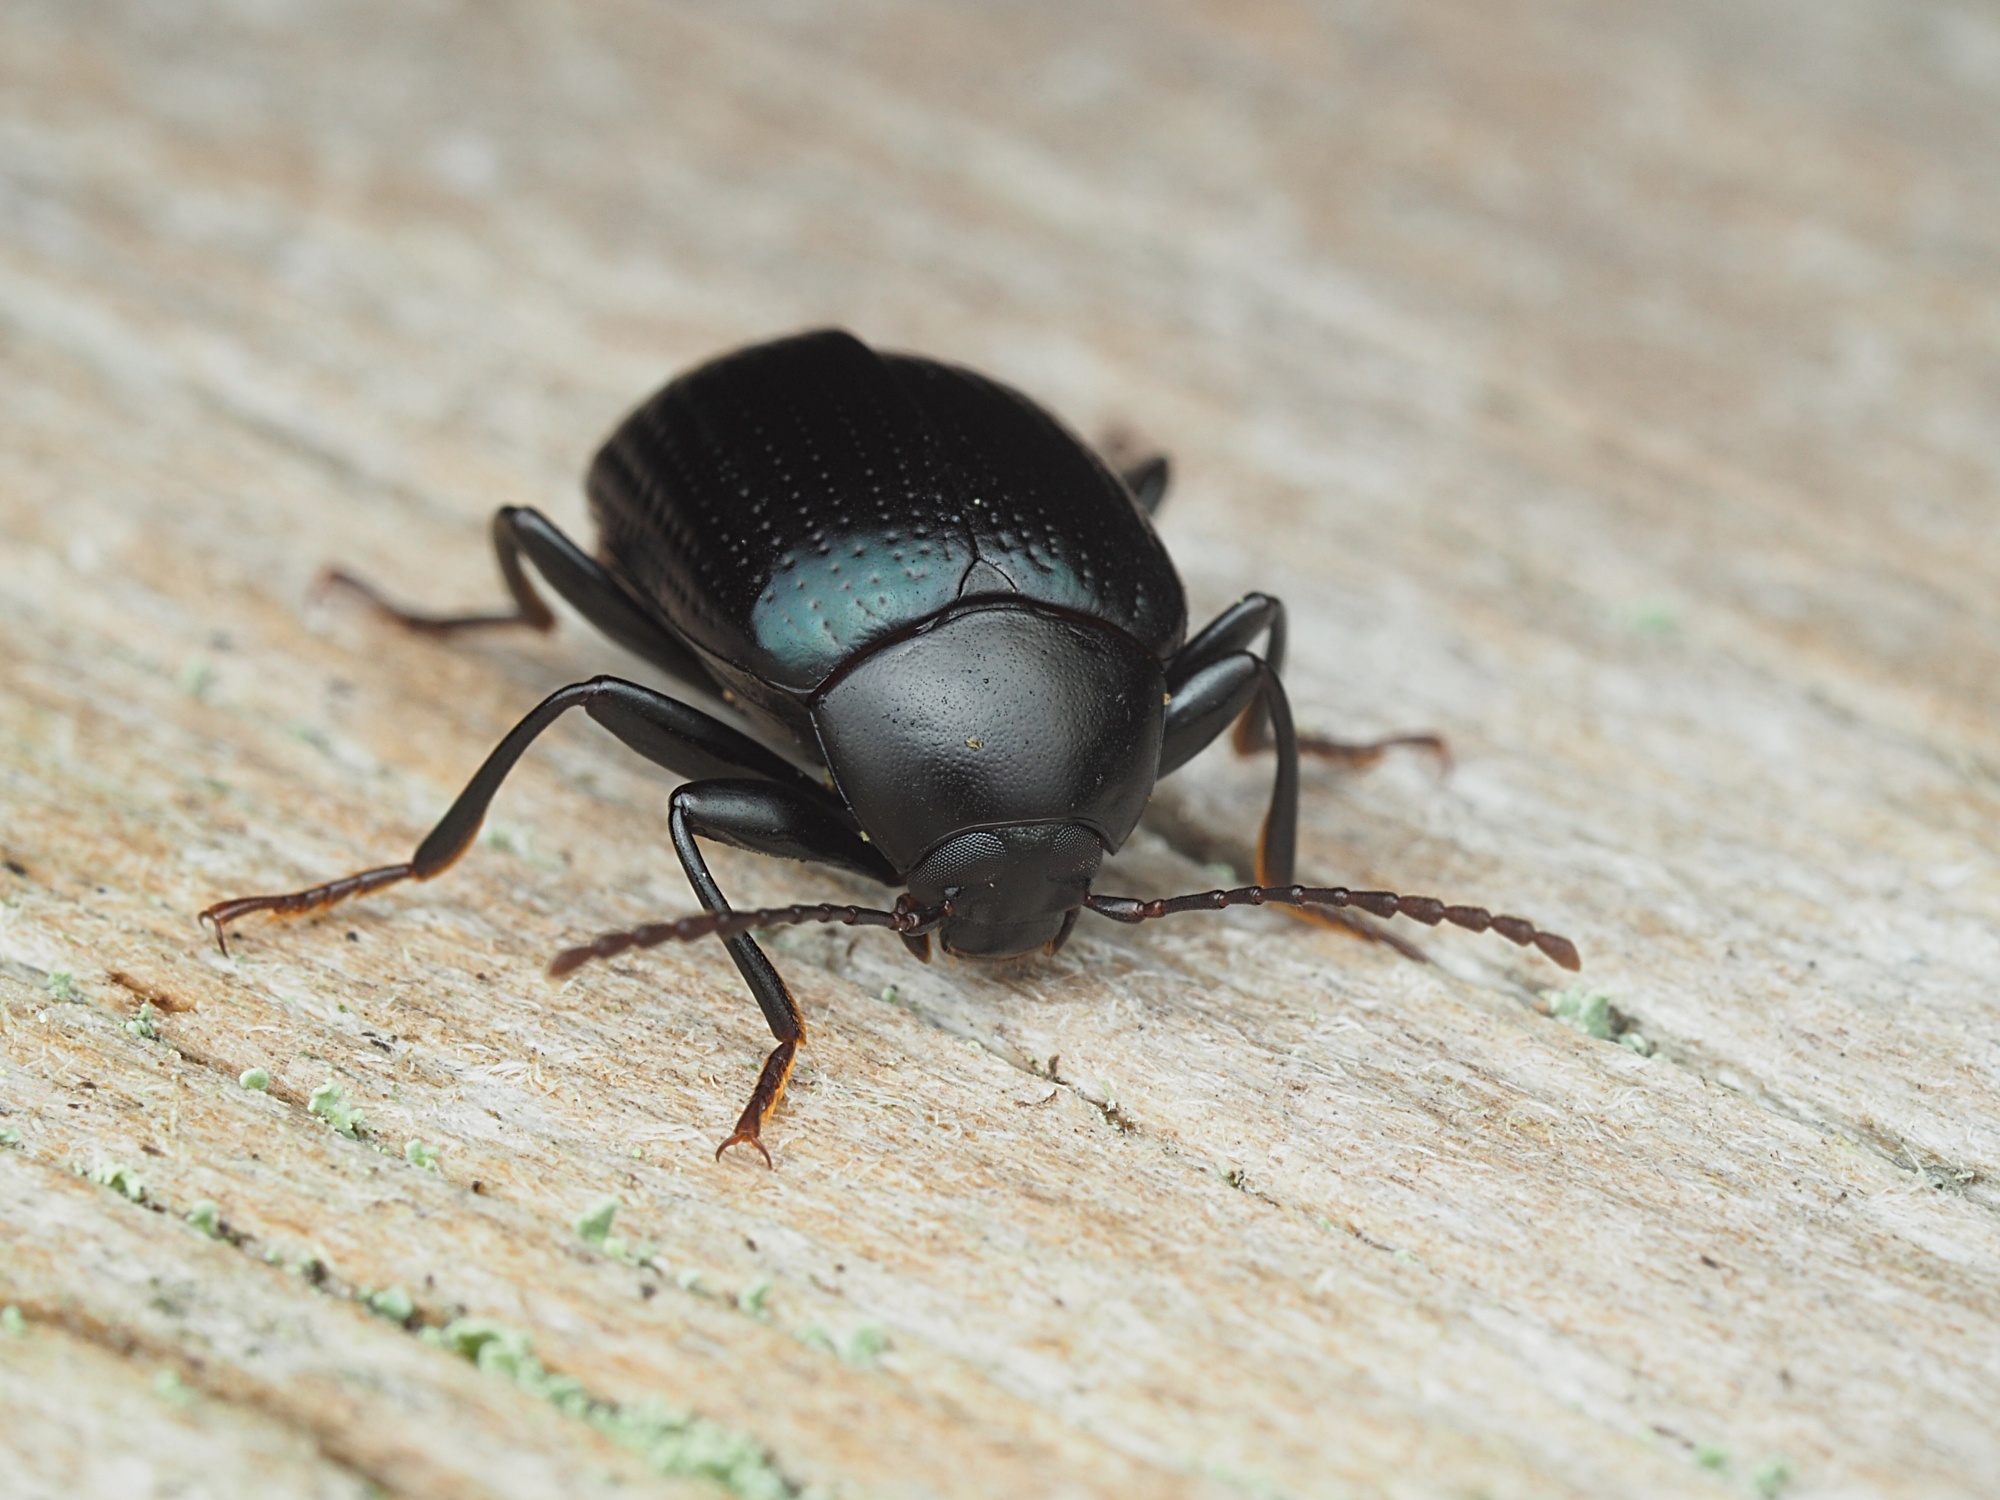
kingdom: Animalia
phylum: Arthropoda
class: Insecta
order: Coleoptera
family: Tenebrionidae
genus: Amarygmus
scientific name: Amarygmus
